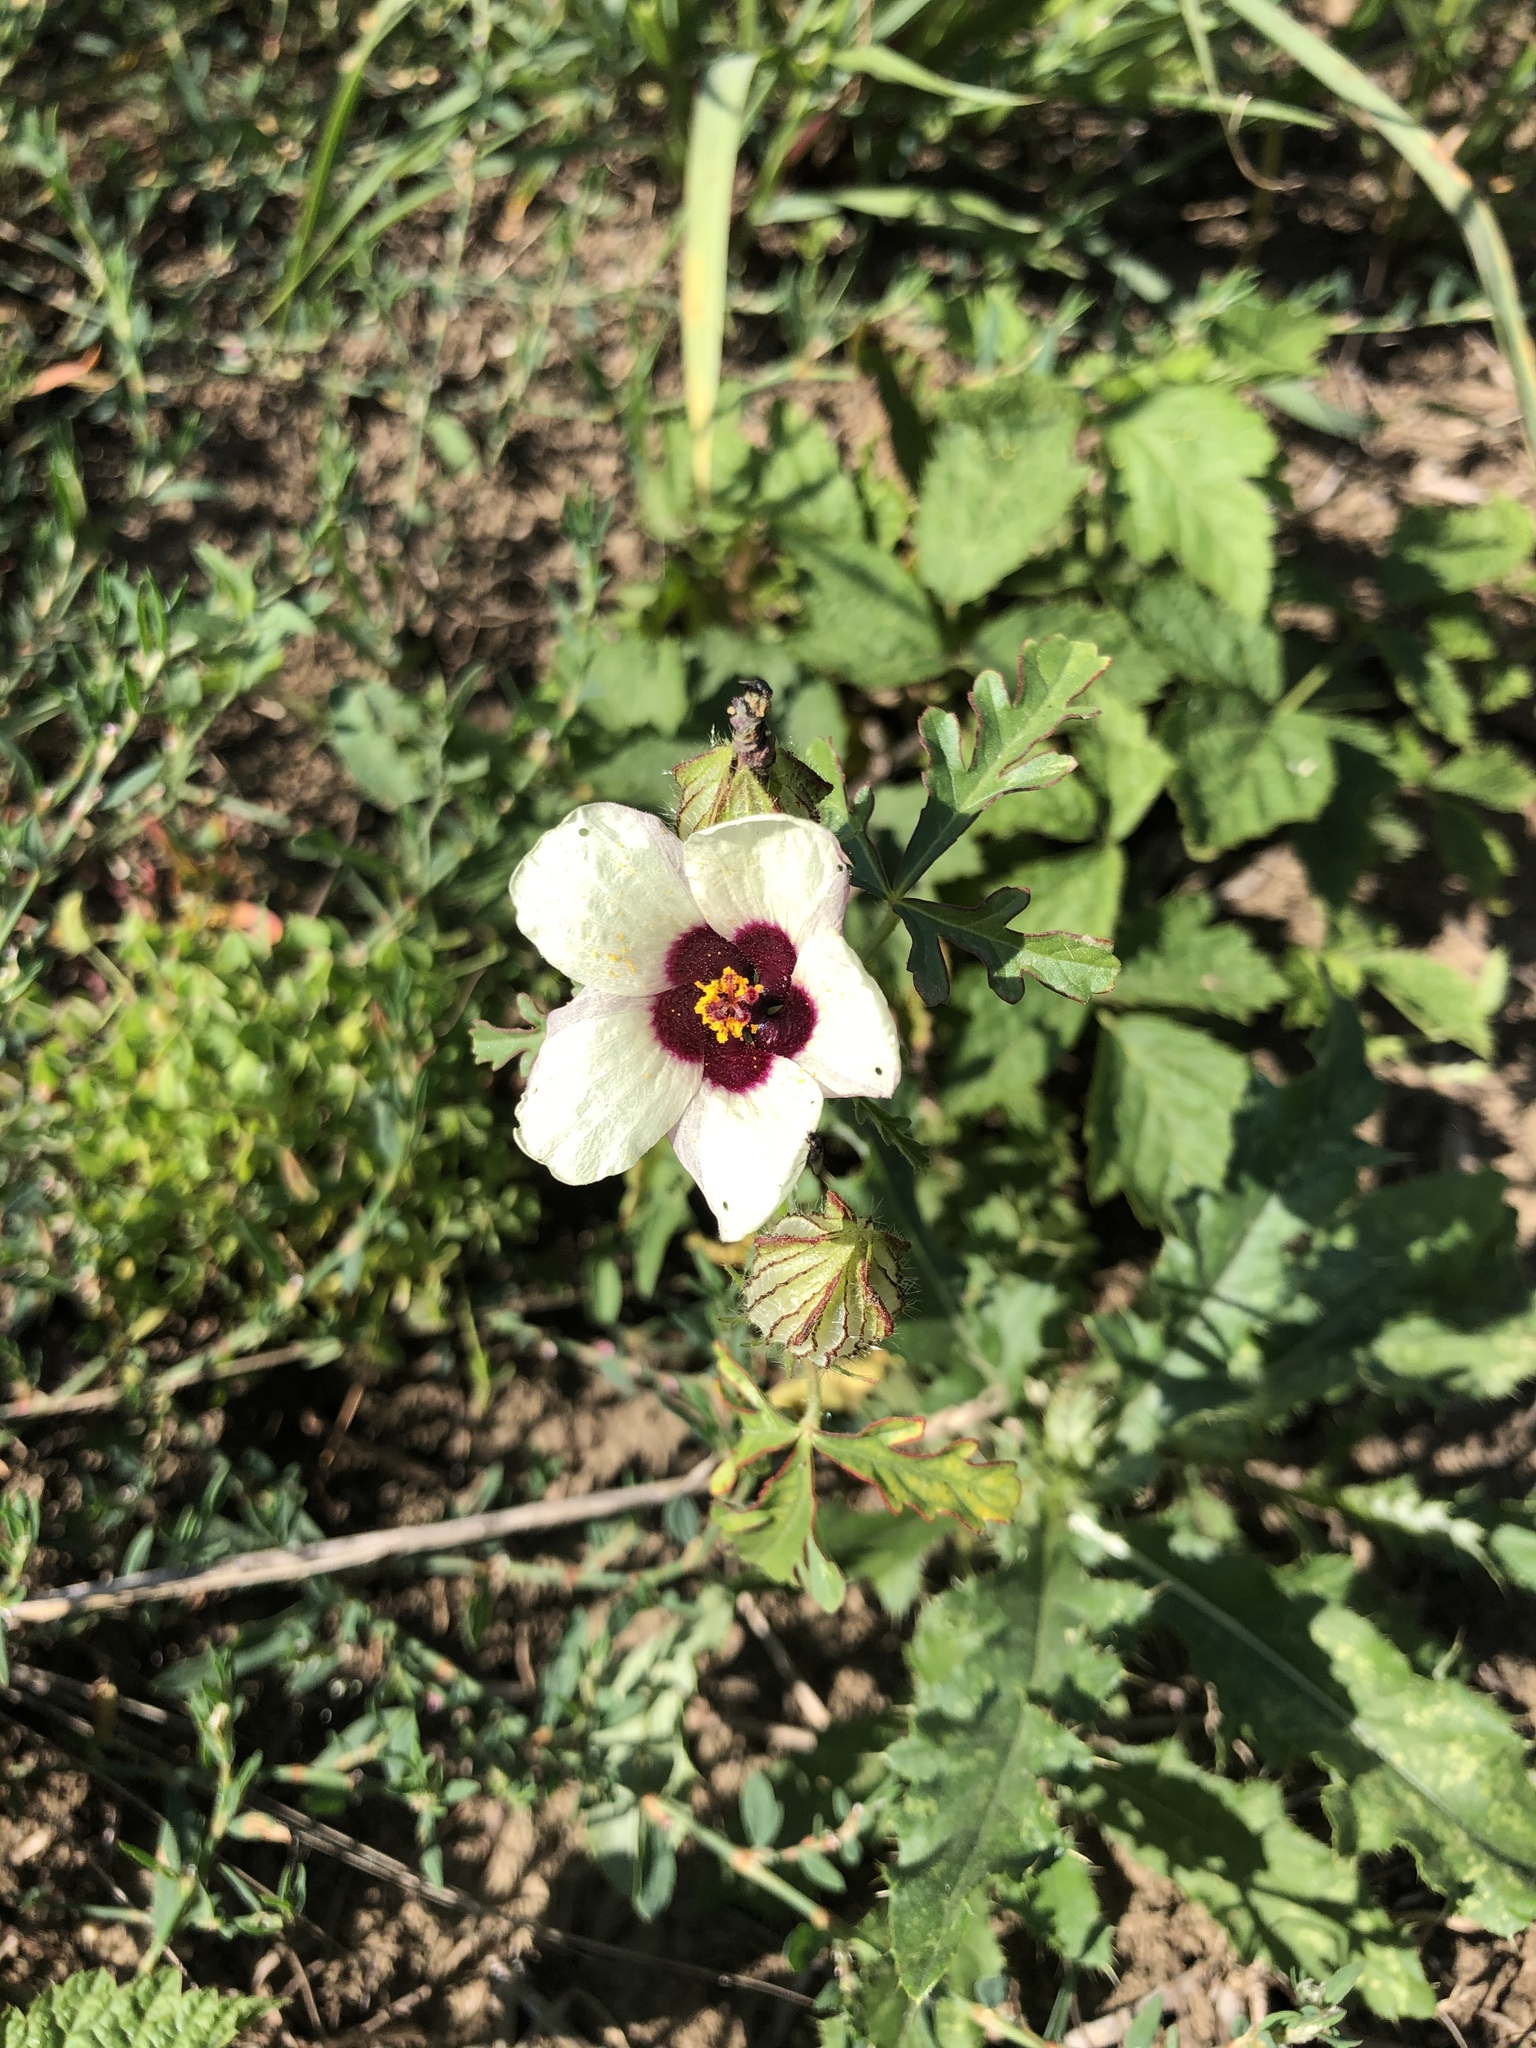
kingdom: Plantae
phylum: Tracheophyta
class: Magnoliopsida
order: Malvales
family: Malvaceae
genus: Hibiscus
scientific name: Hibiscus trionum
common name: Bladder ketmia
